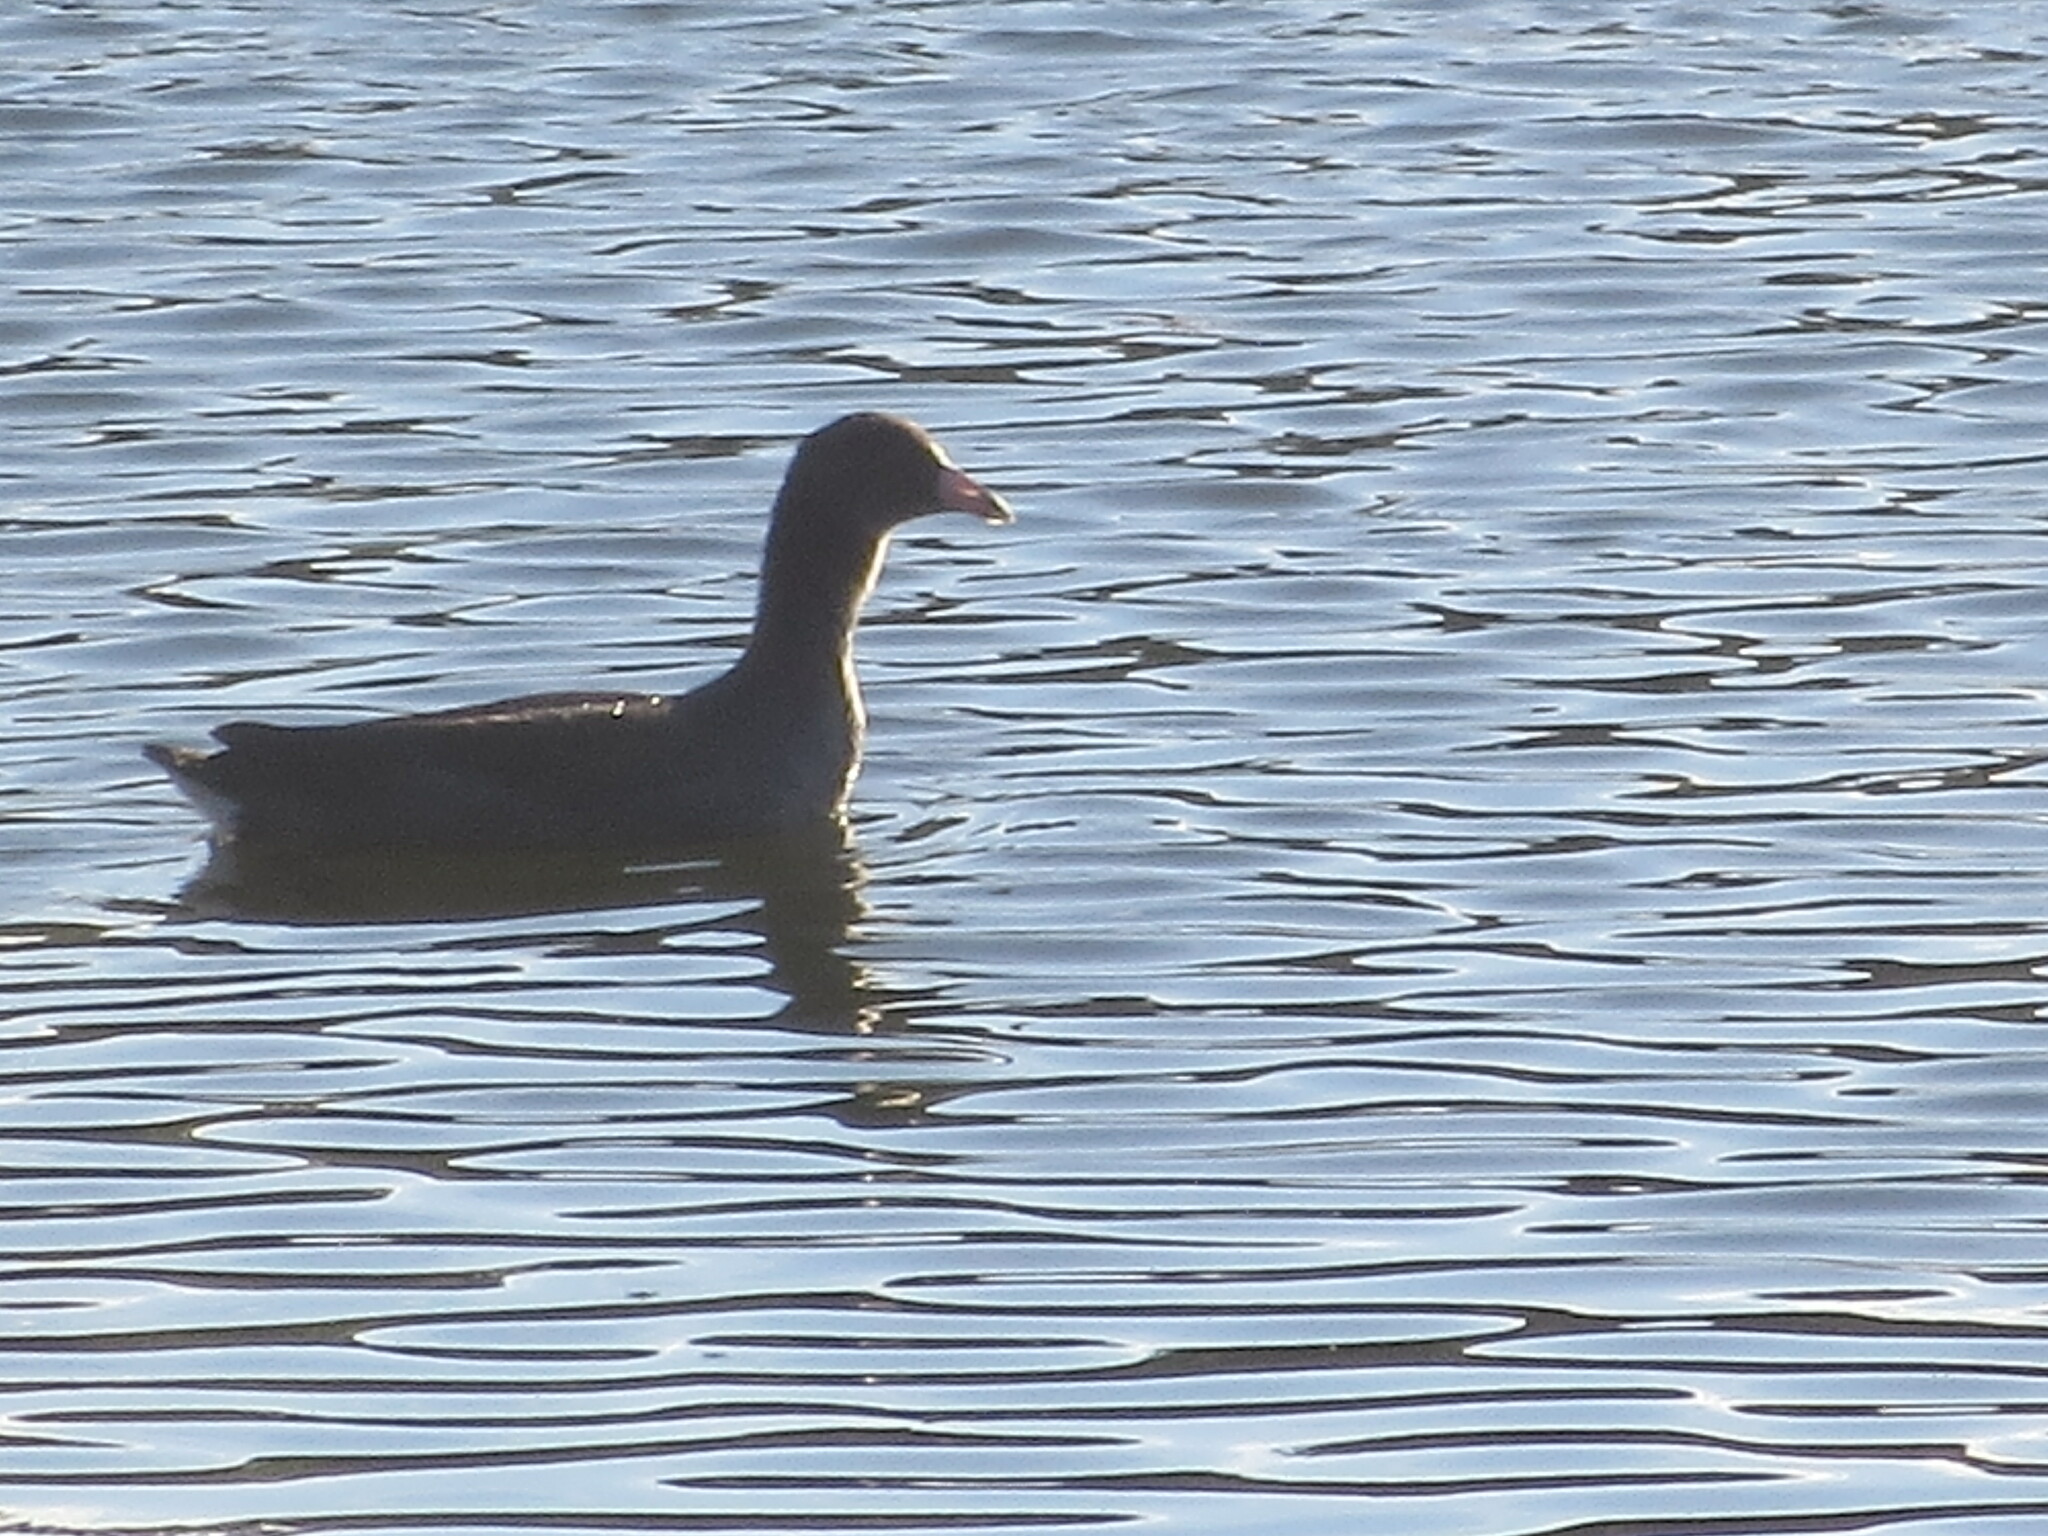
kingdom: Animalia
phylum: Chordata
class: Aves
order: Gruiformes
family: Rallidae
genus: Fulica
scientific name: Fulica americana
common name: American coot
